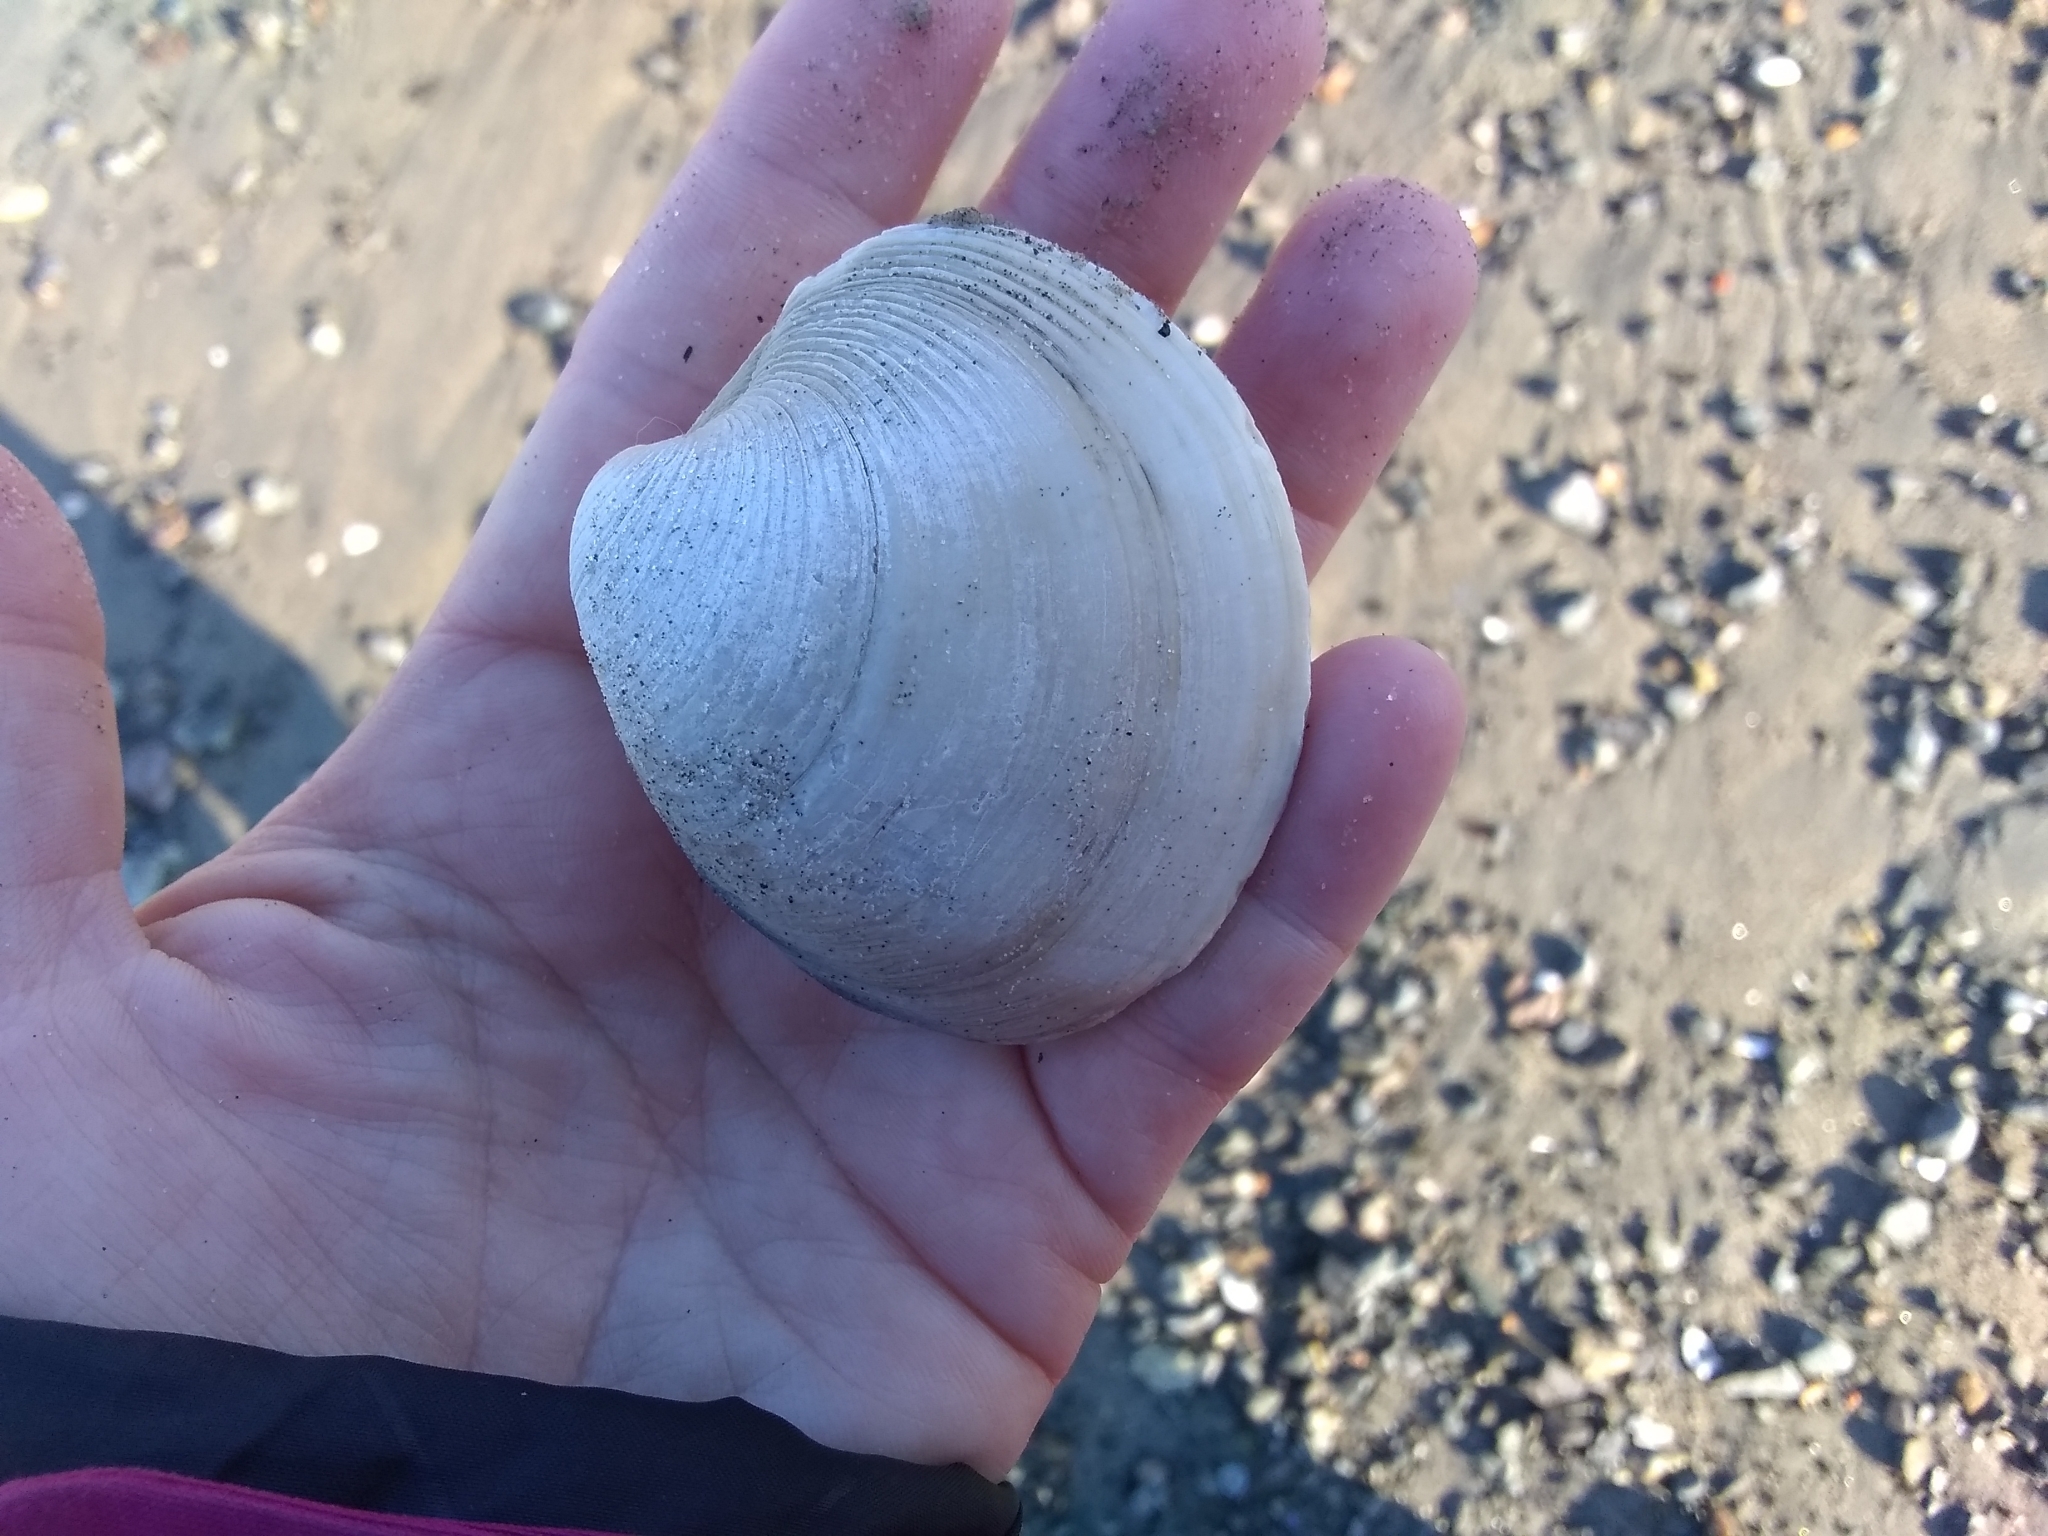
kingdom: Animalia
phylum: Mollusca
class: Bivalvia
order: Venerida
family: Veneridae
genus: Mercenaria
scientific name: Mercenaria mercenaria
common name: American hard-shelled clam
